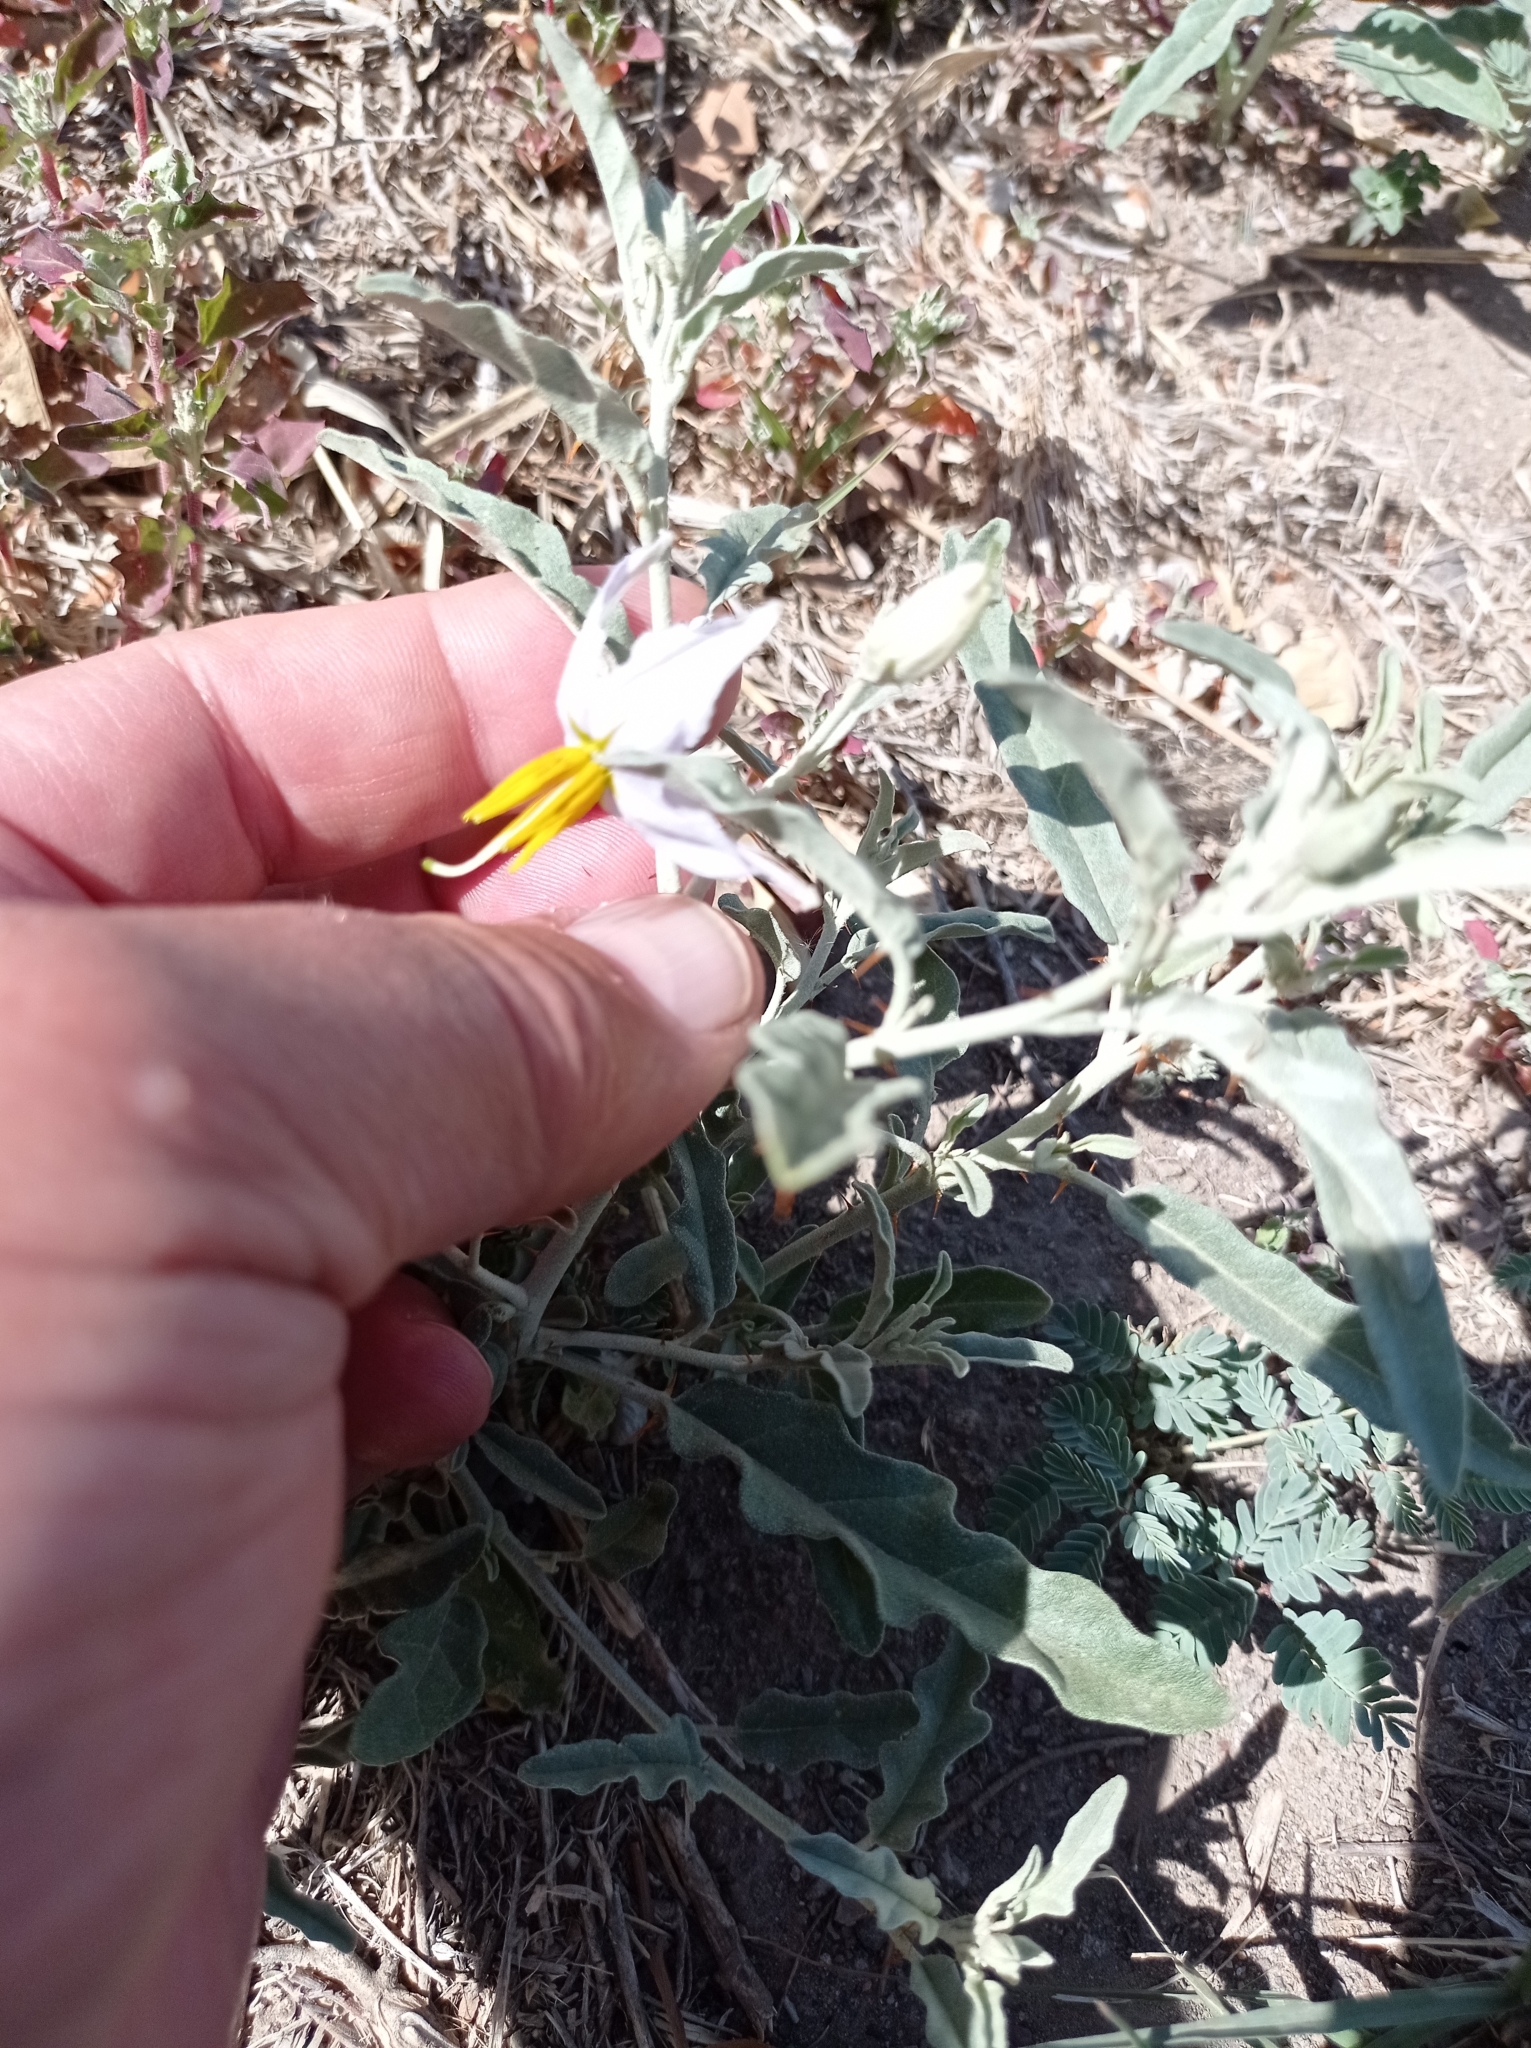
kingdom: Plantae
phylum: Tracheophyta
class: Magnoliopsida
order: Solanales
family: Solanaceae
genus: Solanum
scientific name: Solanum elaeagnifolium
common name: Silverleaf nightshade
